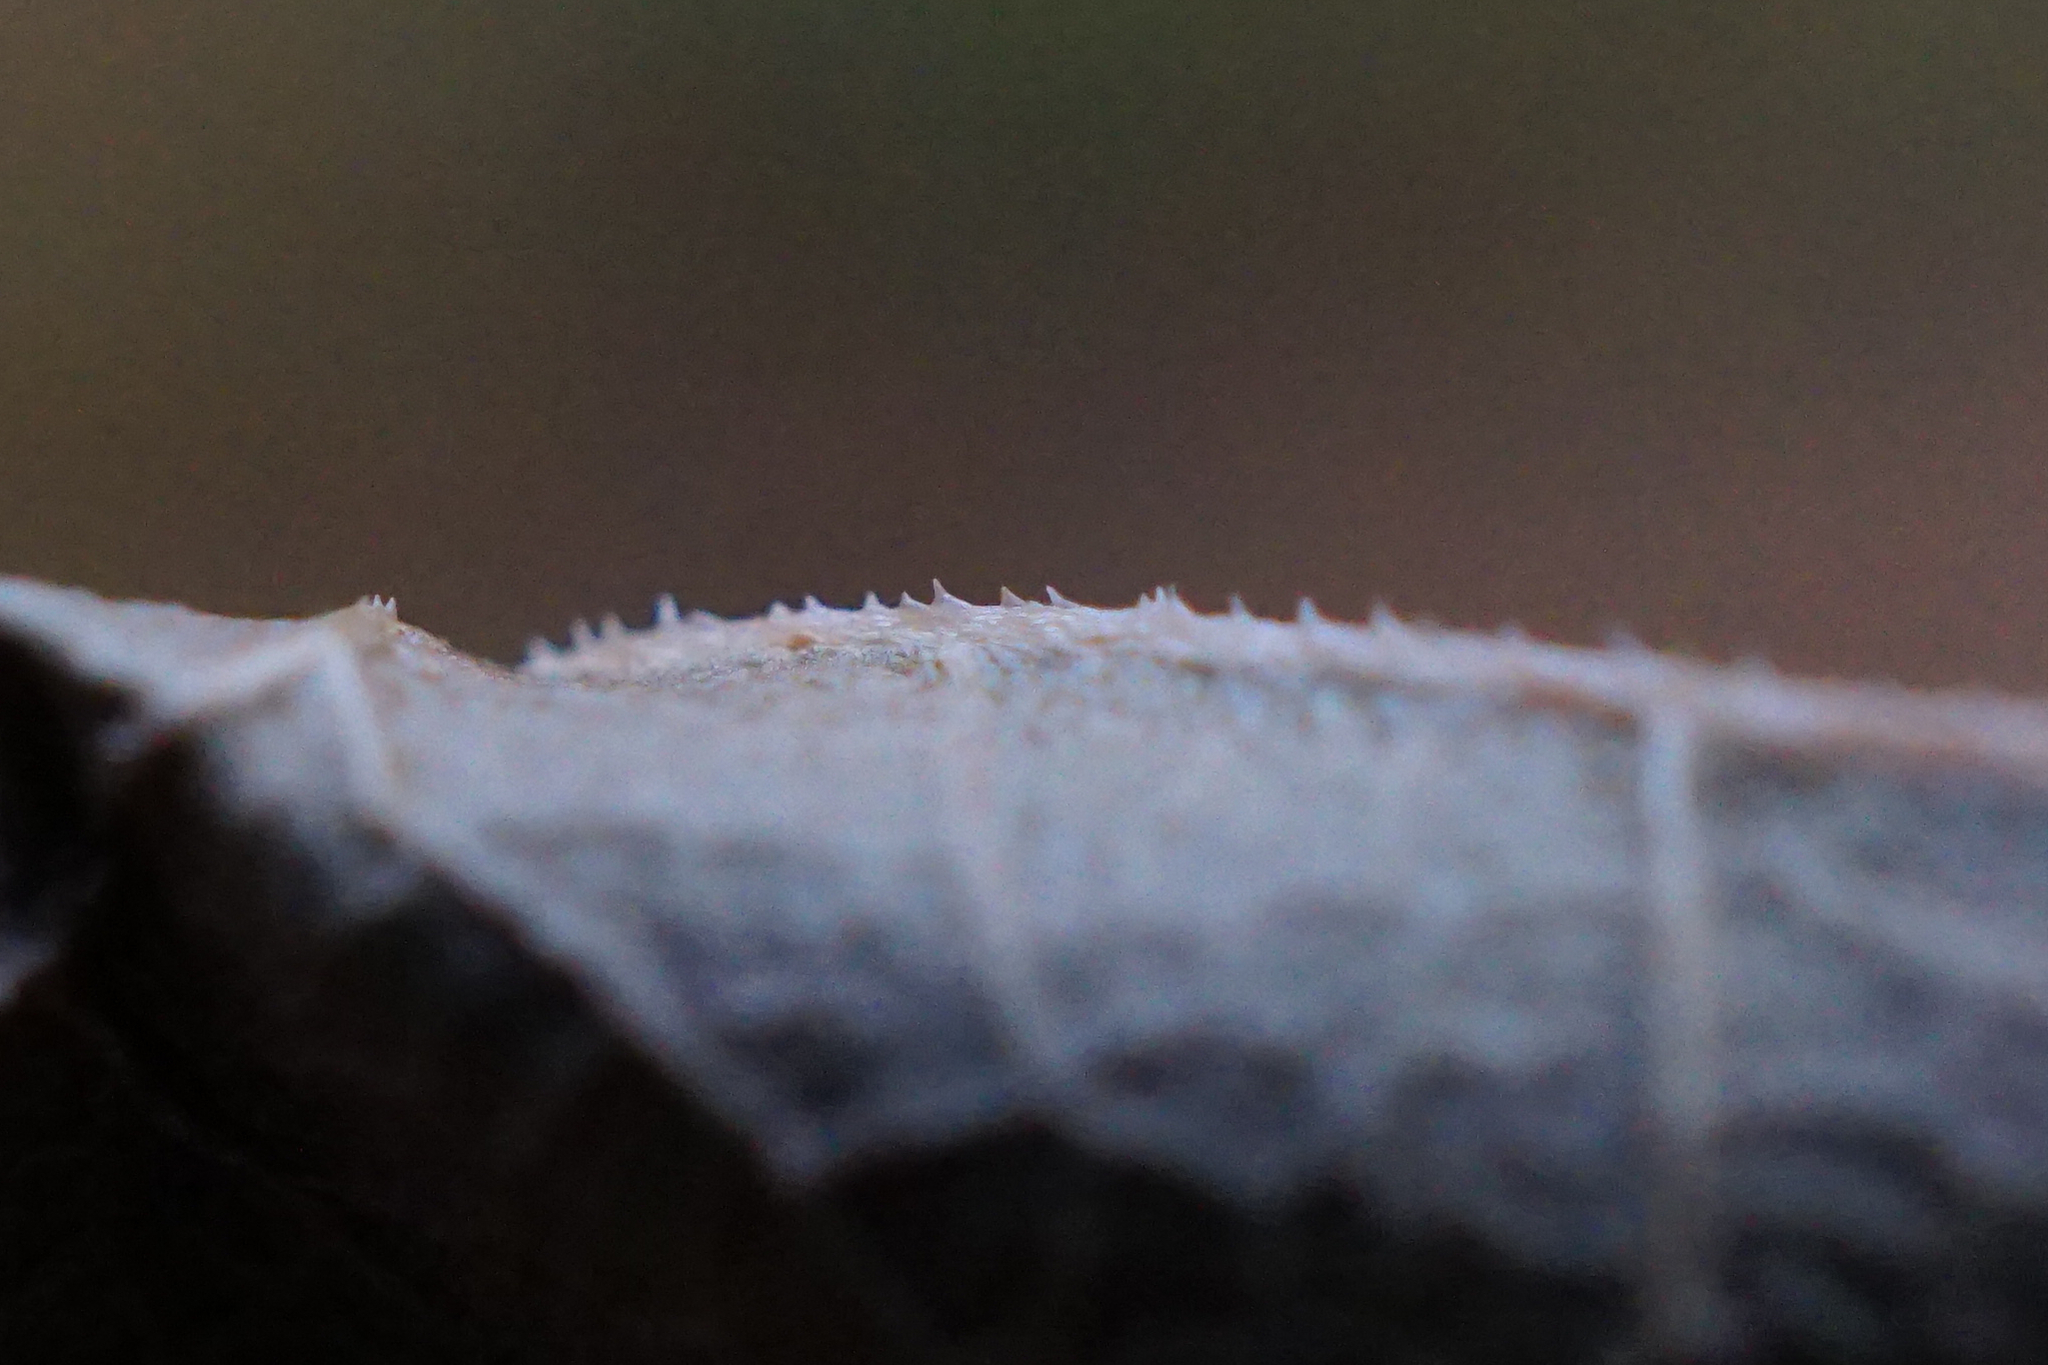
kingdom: Plantae
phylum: Tracheophyta
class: Magnoliopsida
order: Caryophyllales
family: Polygonaceae
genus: Reynoutria
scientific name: Reynoutria bohemica
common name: Bohemian knotweed
